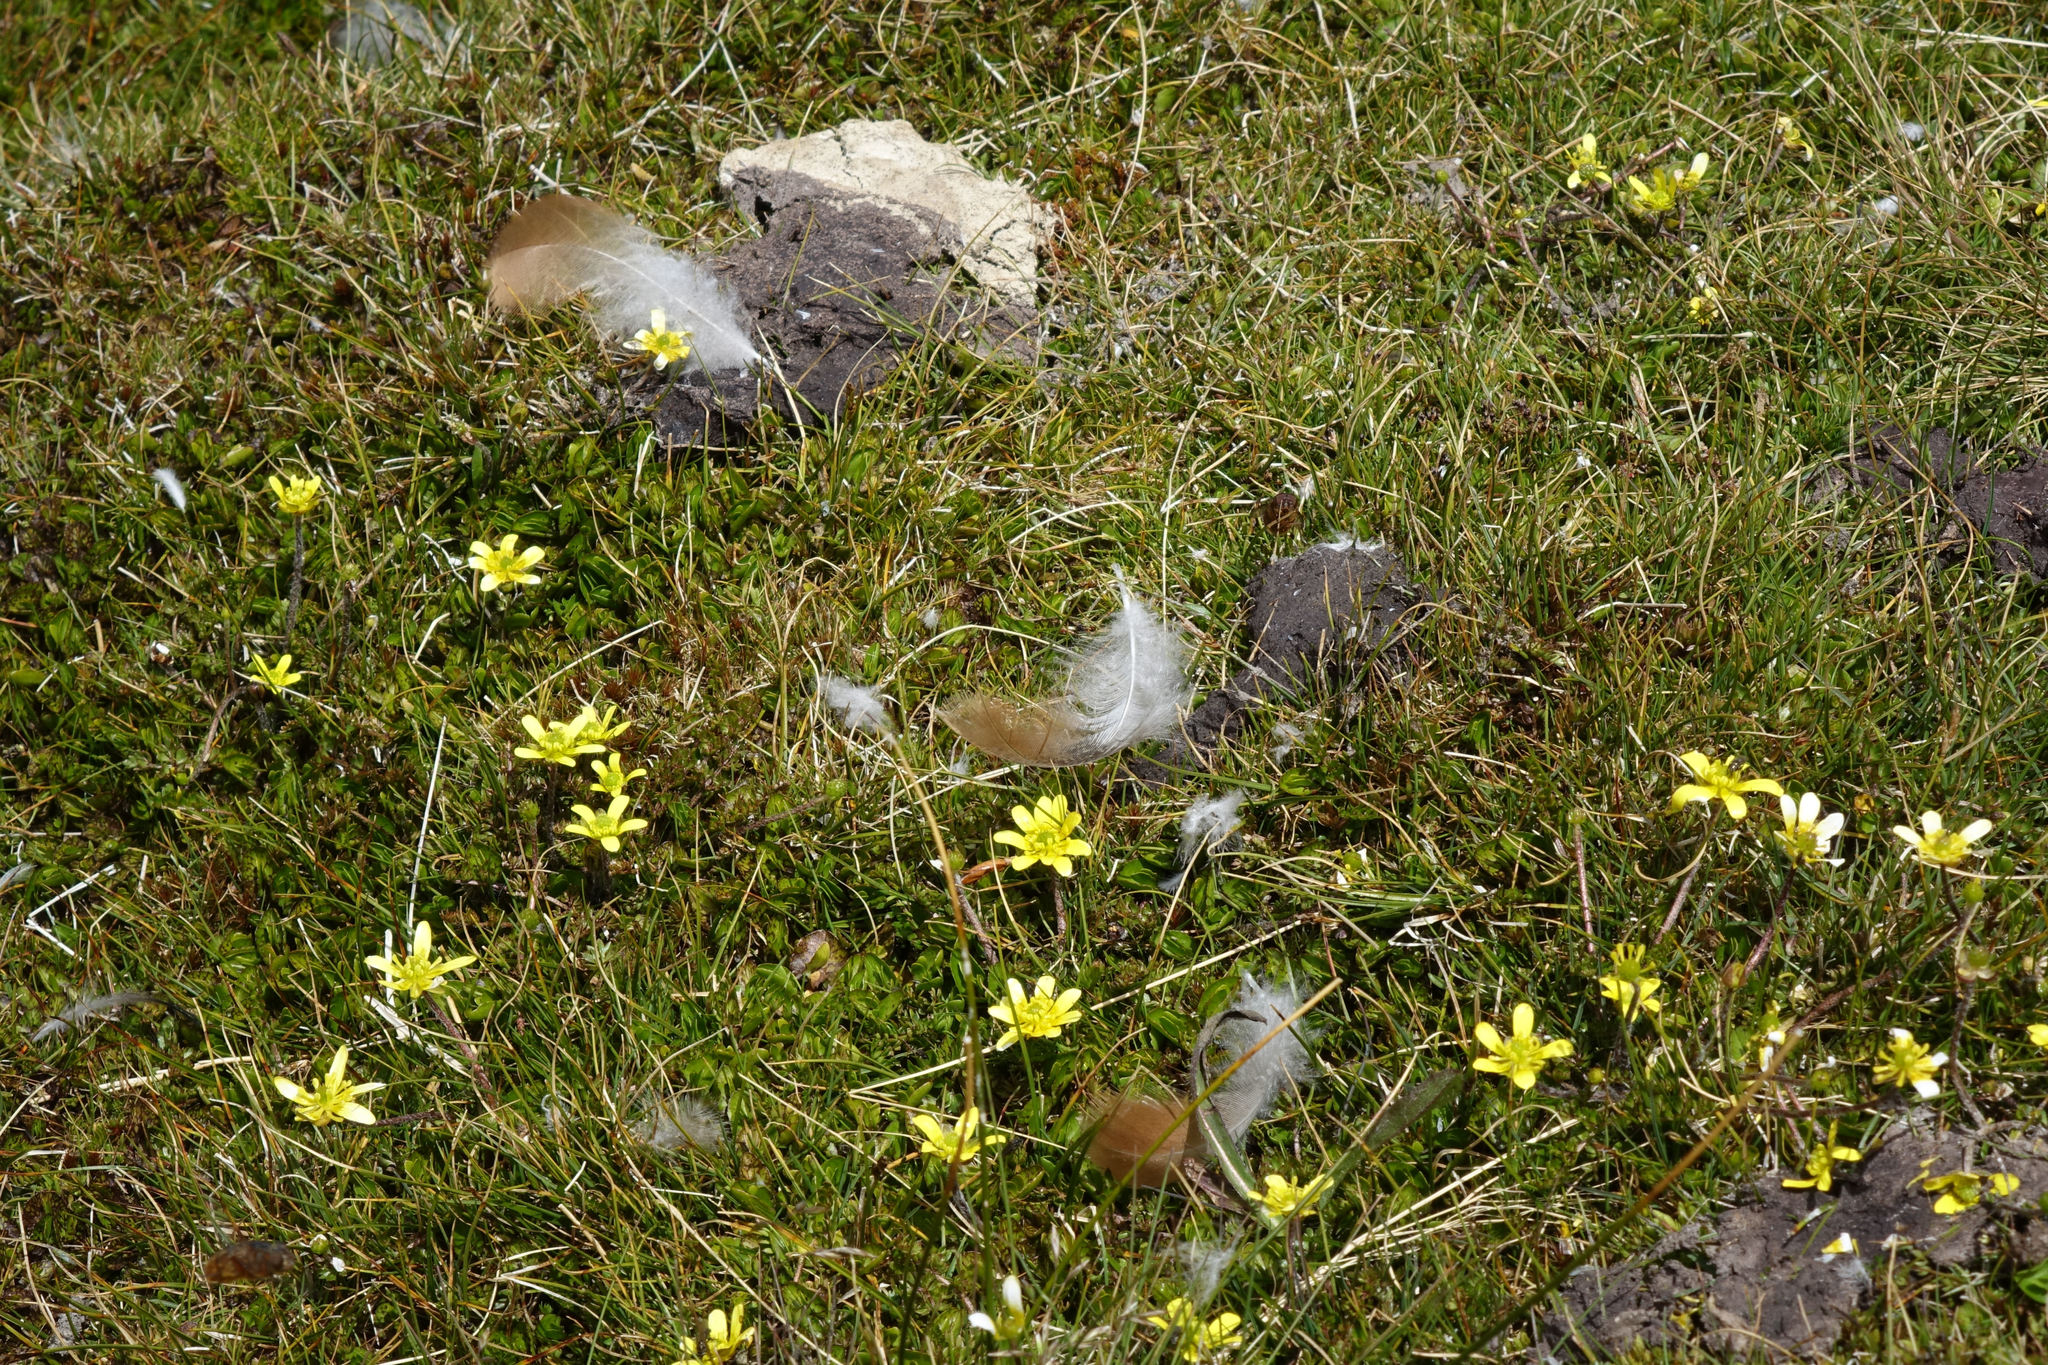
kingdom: Animalia
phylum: Chordata
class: Aves
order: Anseriformes
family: Anatidae
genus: Tadorna
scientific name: Tadorna variegata
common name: Paradise shelduck
